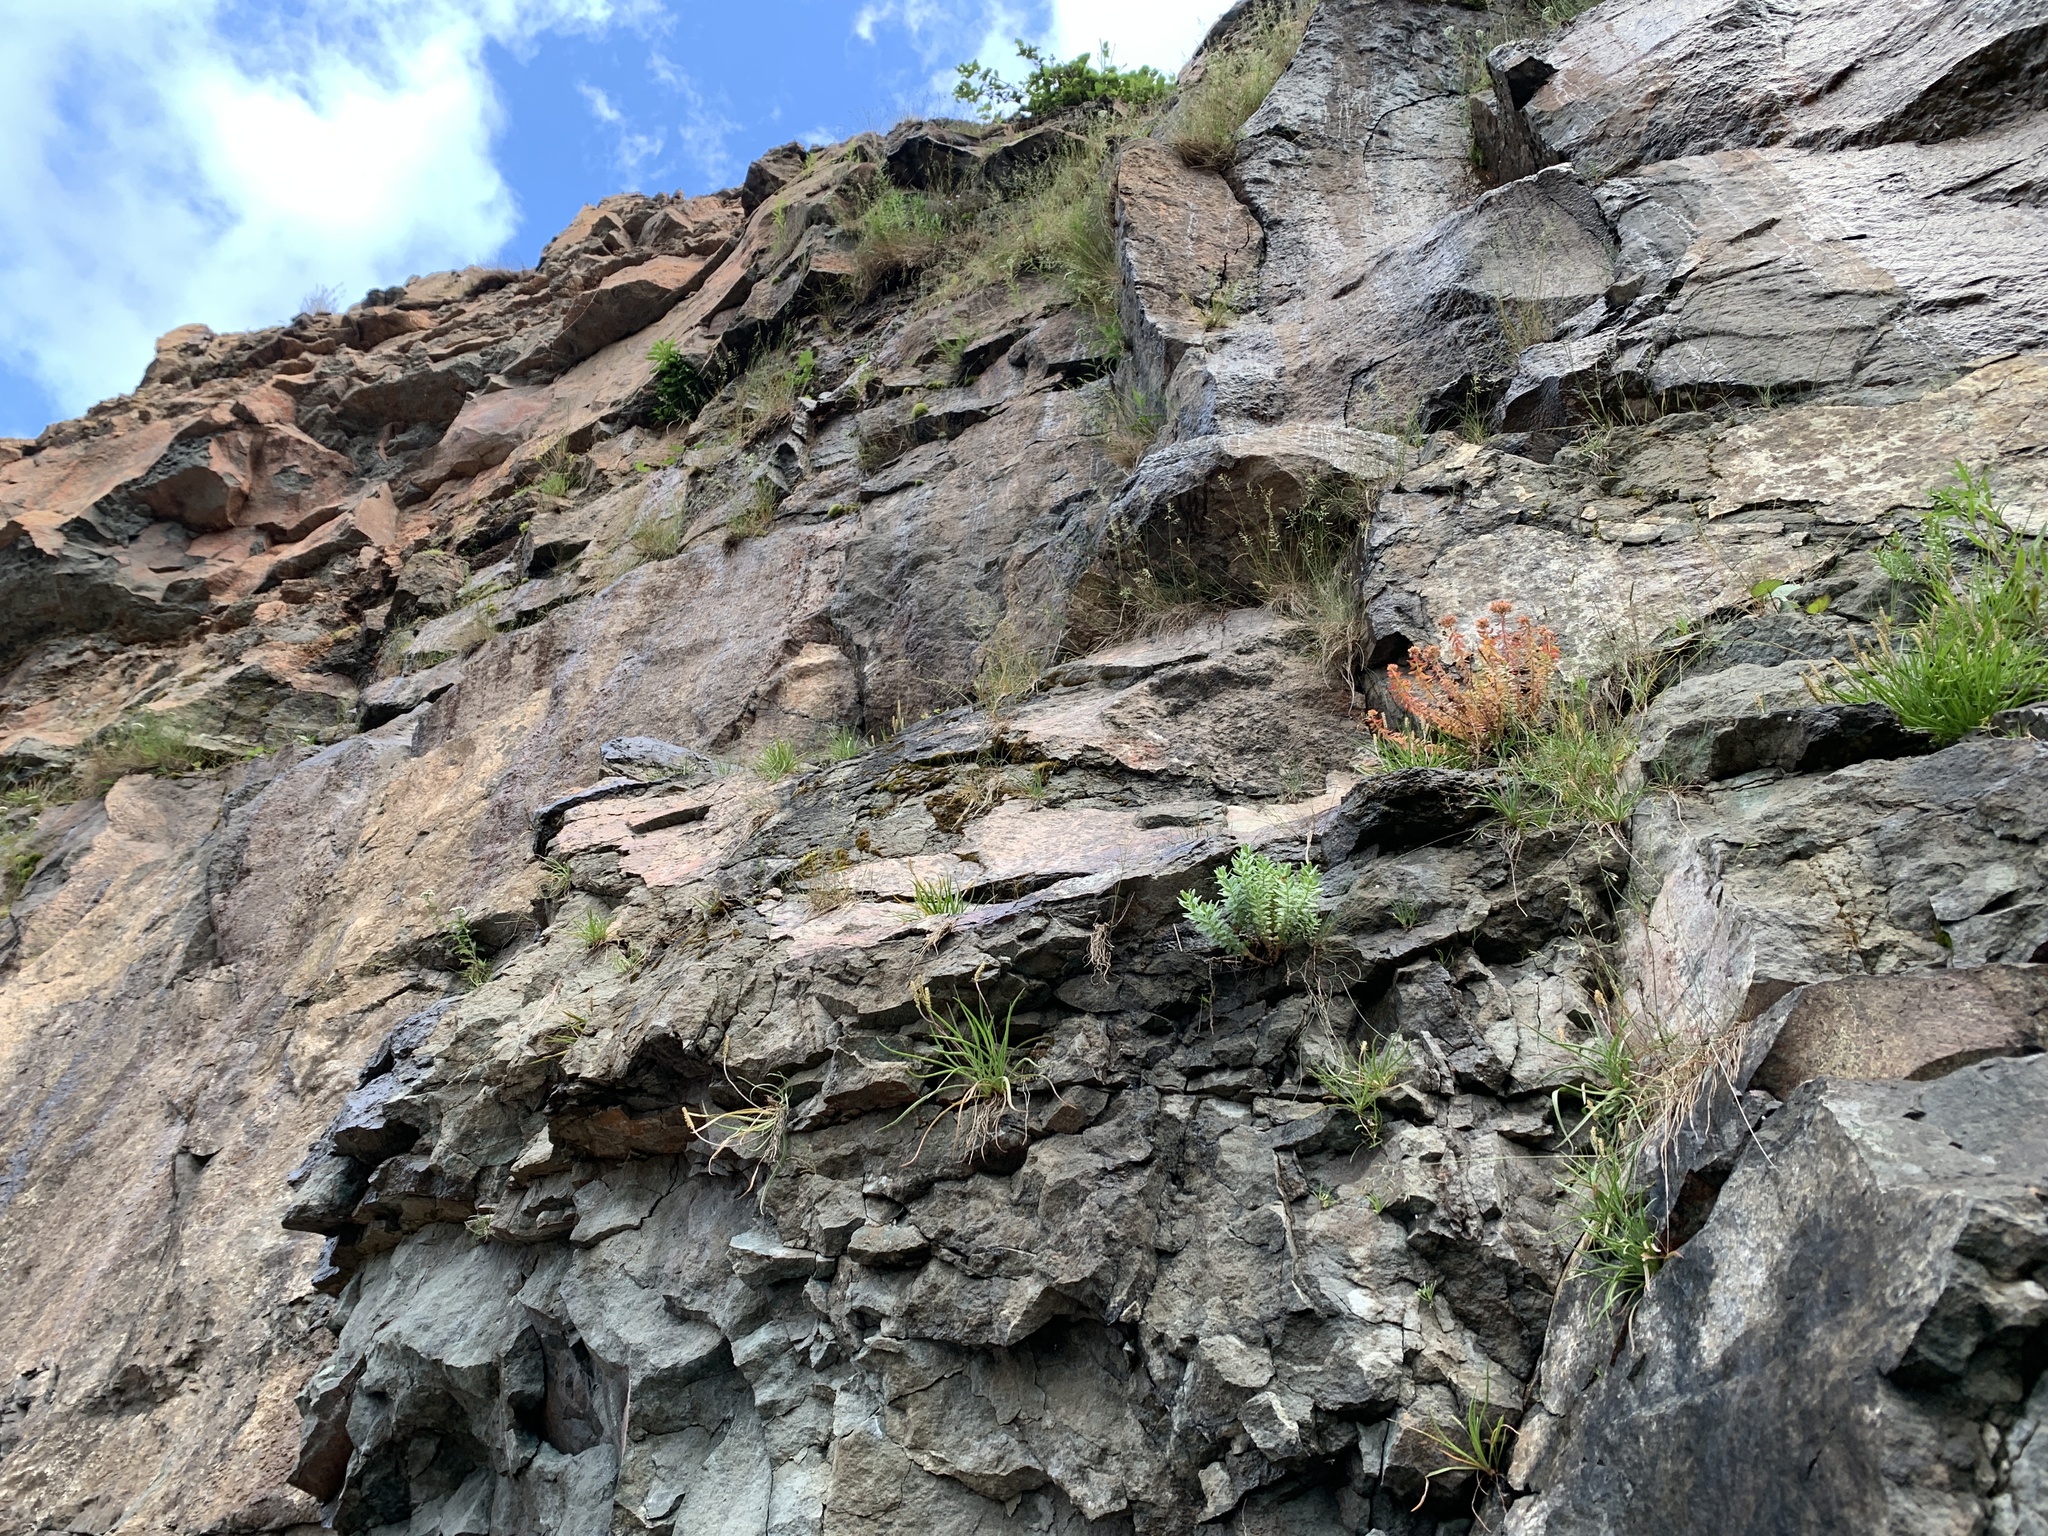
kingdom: Plantae
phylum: Tracheophyta
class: Magnoliopsida
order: Saxifragales
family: Crassulaceae
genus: Rhodiola
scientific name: Rhodiola rosea
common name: Roseroot
